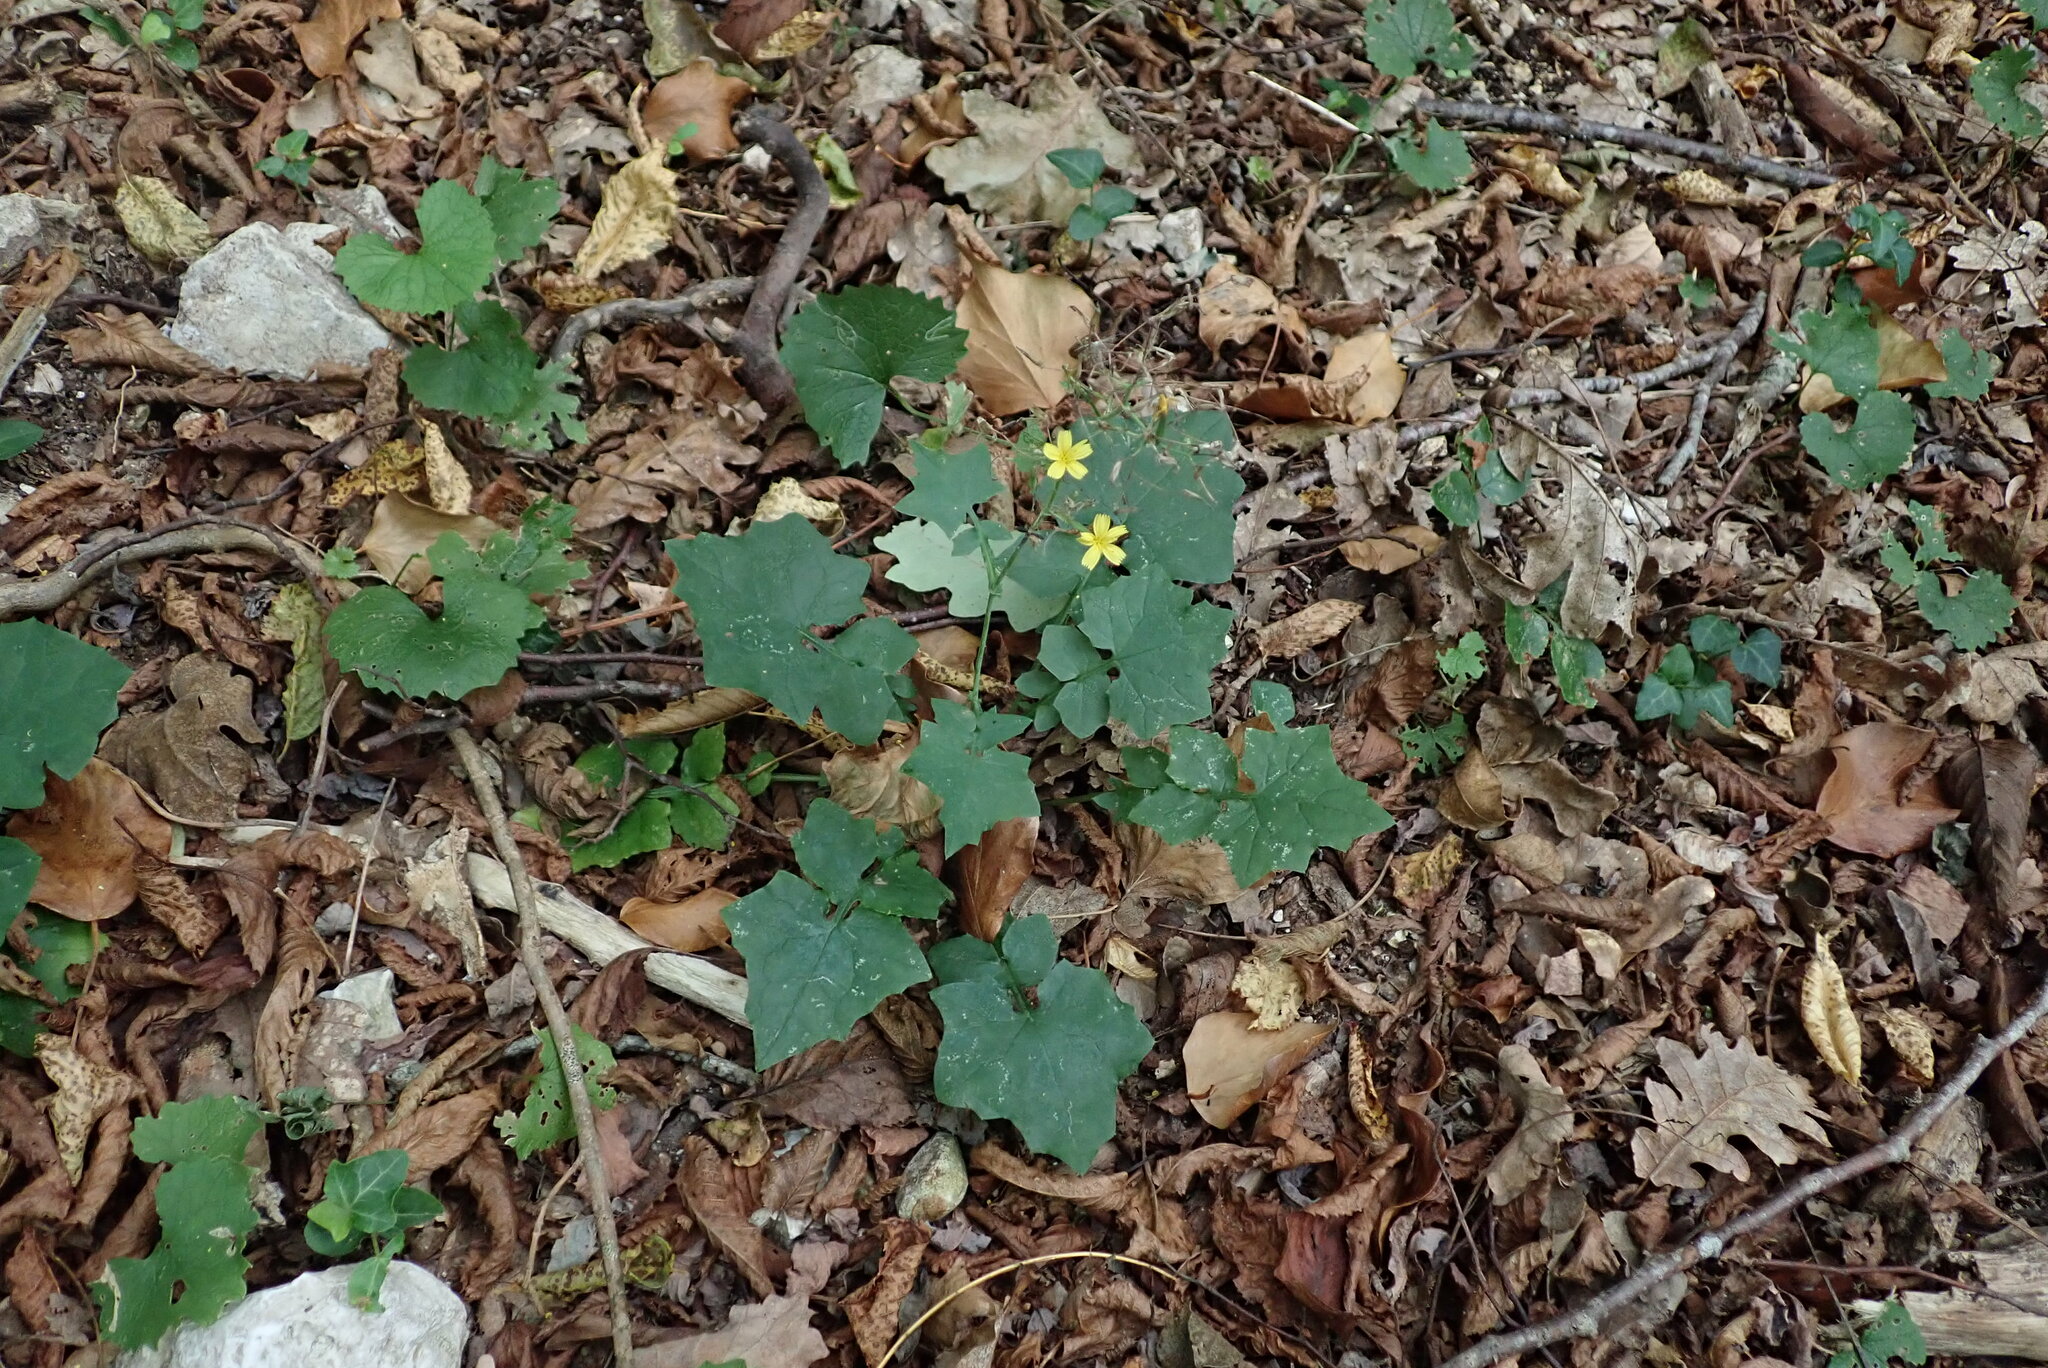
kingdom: Plantae
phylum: Tracheophyta
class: Magnoliopsida
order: Asterales
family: Asteraceae
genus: Mycelis
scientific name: Mycelis muralis
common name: Wall lettuce
